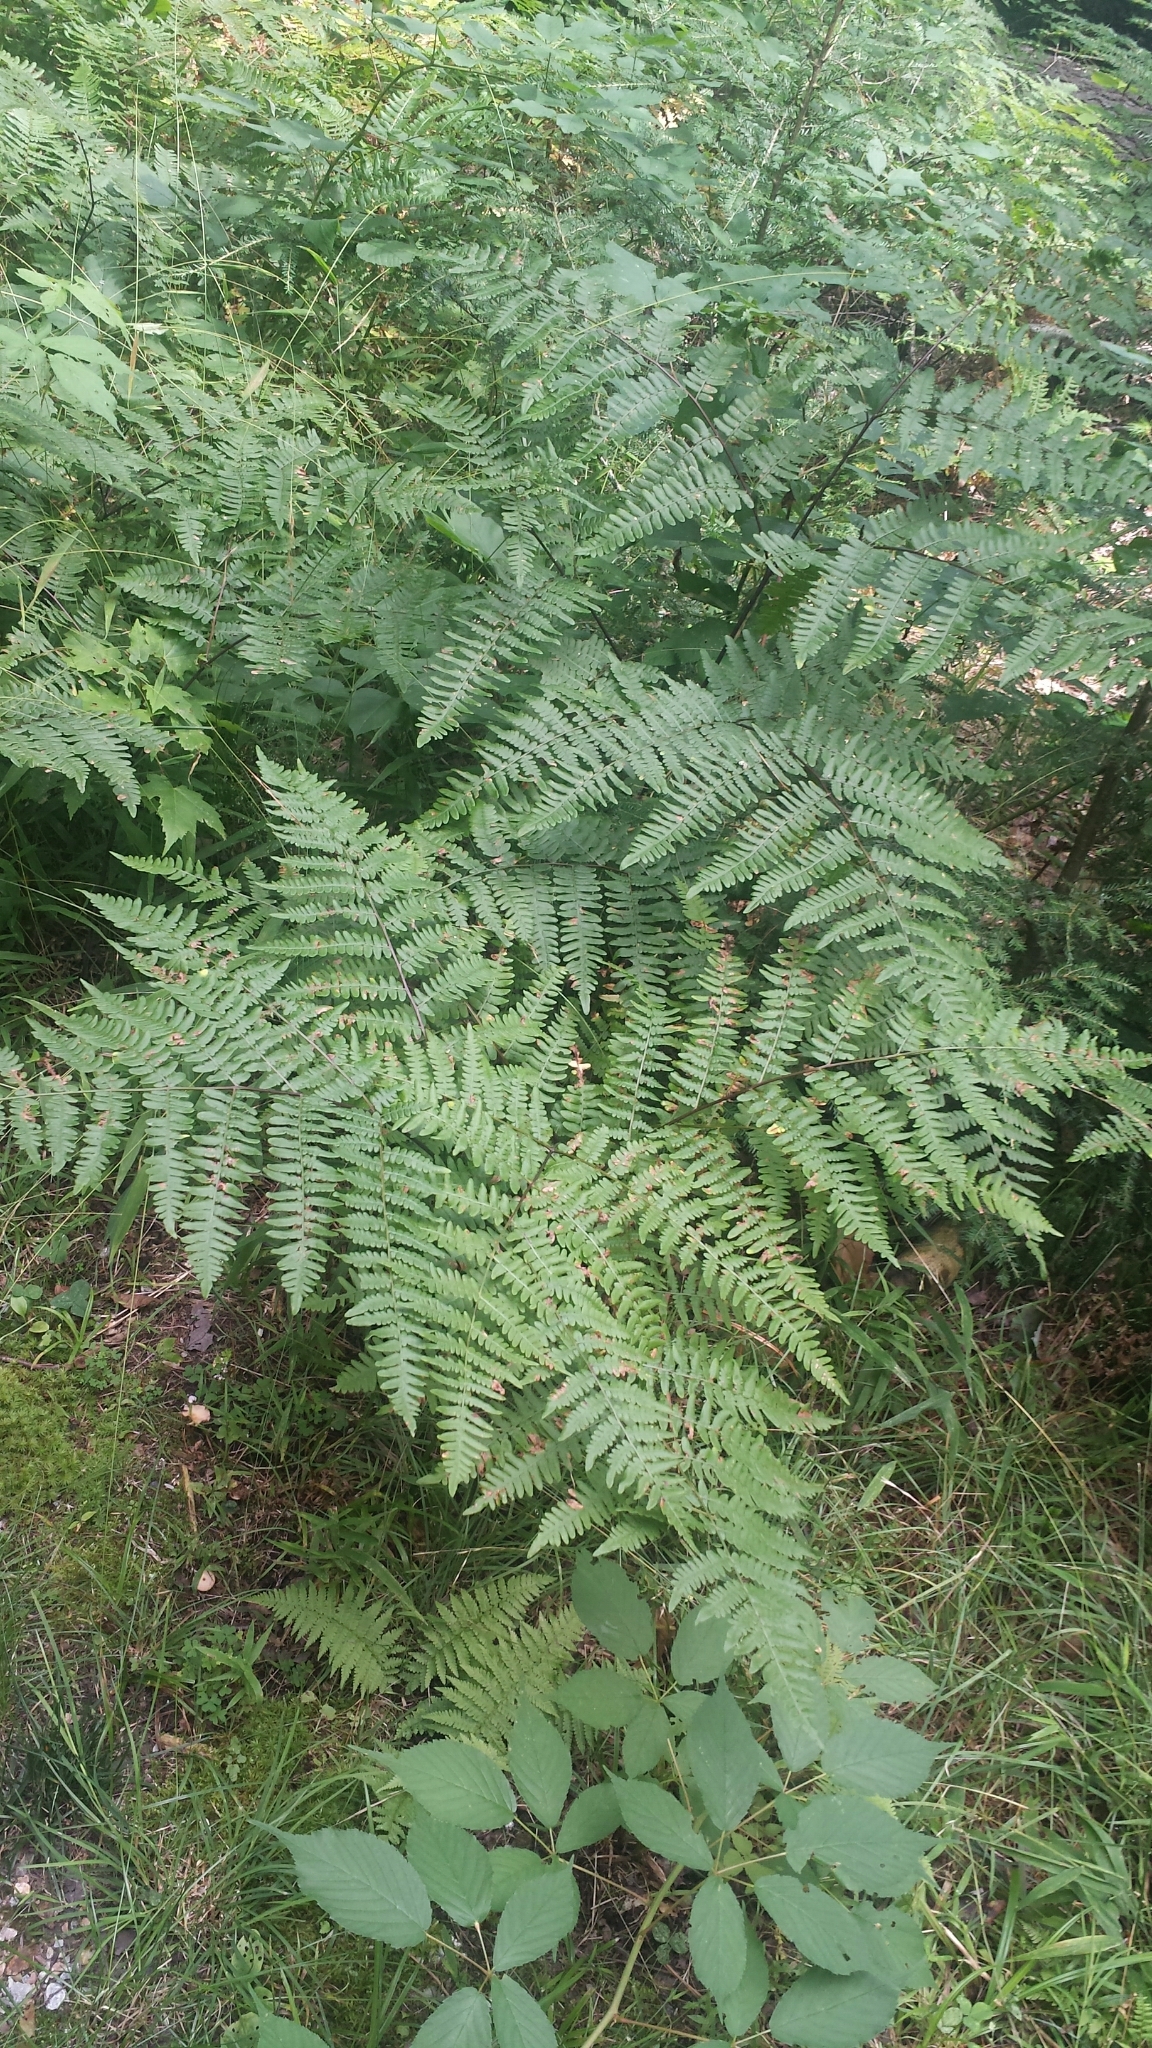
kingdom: Plantae
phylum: Tracheophyta
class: Polypodiopsida
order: Polypodiales
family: Dennstaedtiaceae
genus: Pteridium
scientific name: Pteridium aquilinum
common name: Bracken
